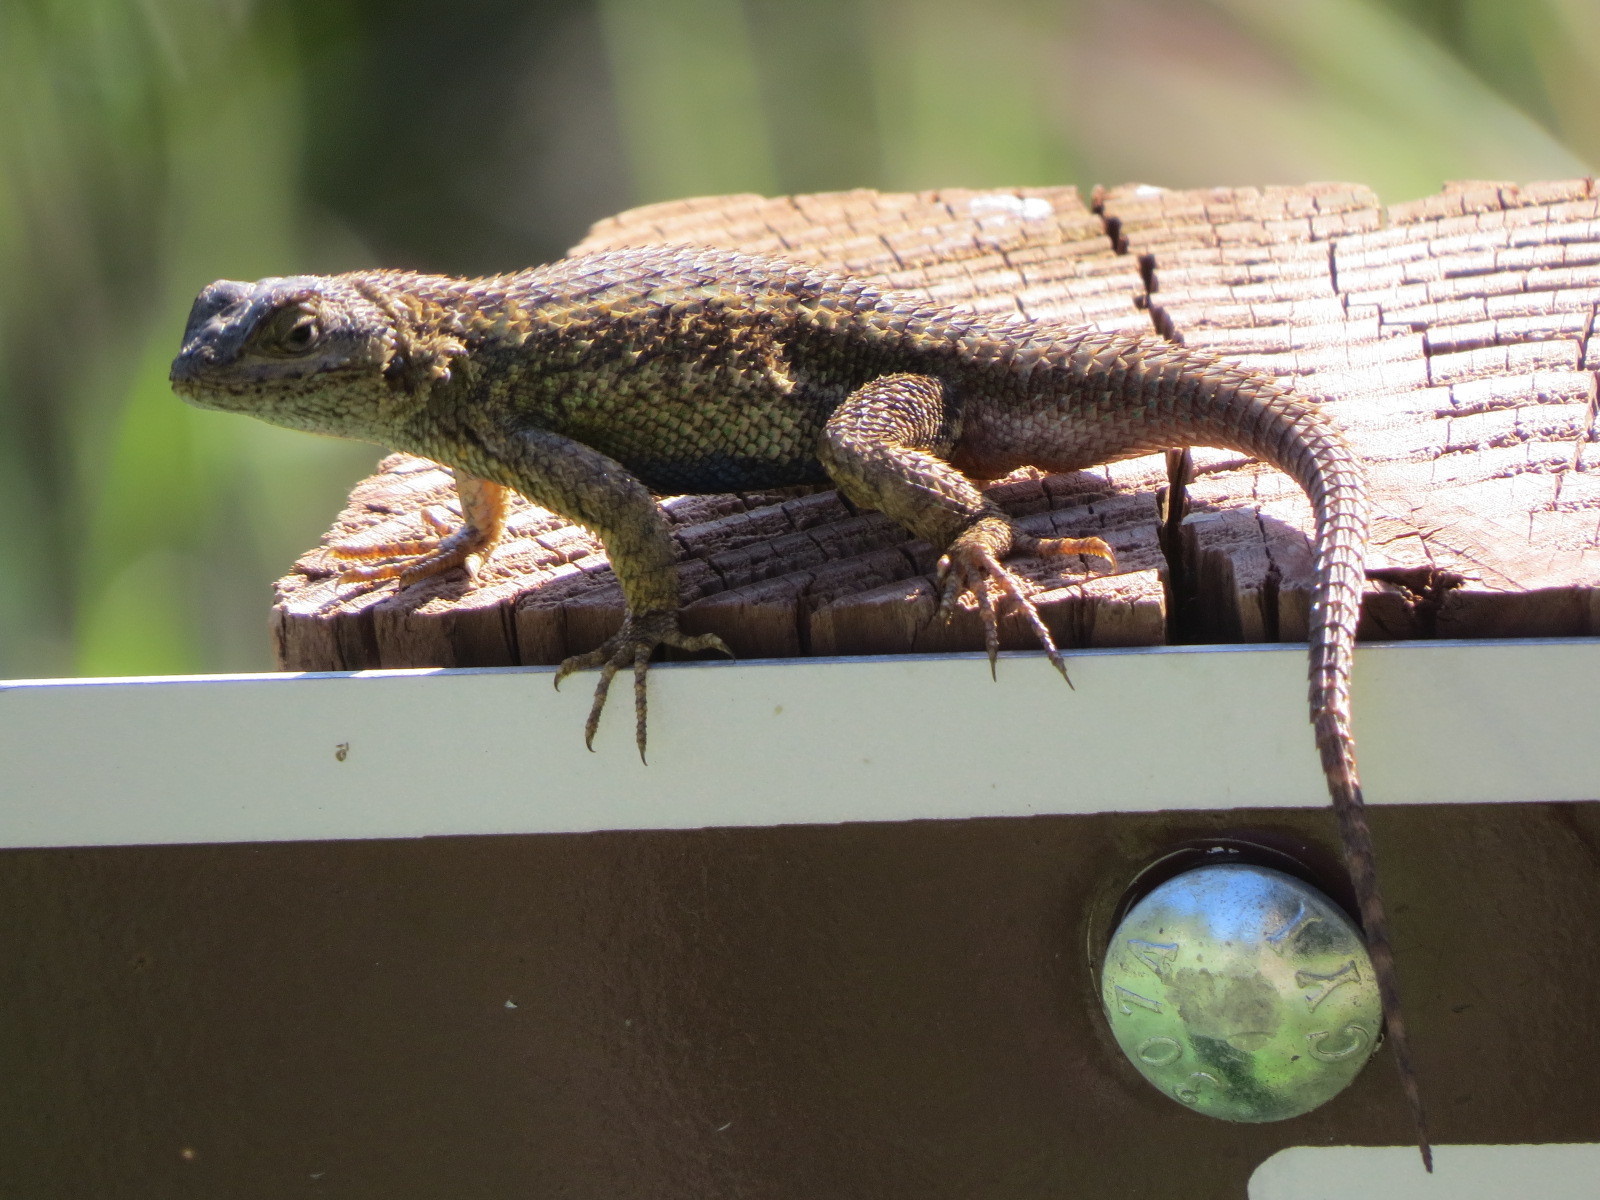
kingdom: Animalia
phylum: Chordata
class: Squamata
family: Phrynosomatidae
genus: Sceloporus
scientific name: Sceloporus occidentalis
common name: Western fence lizard
